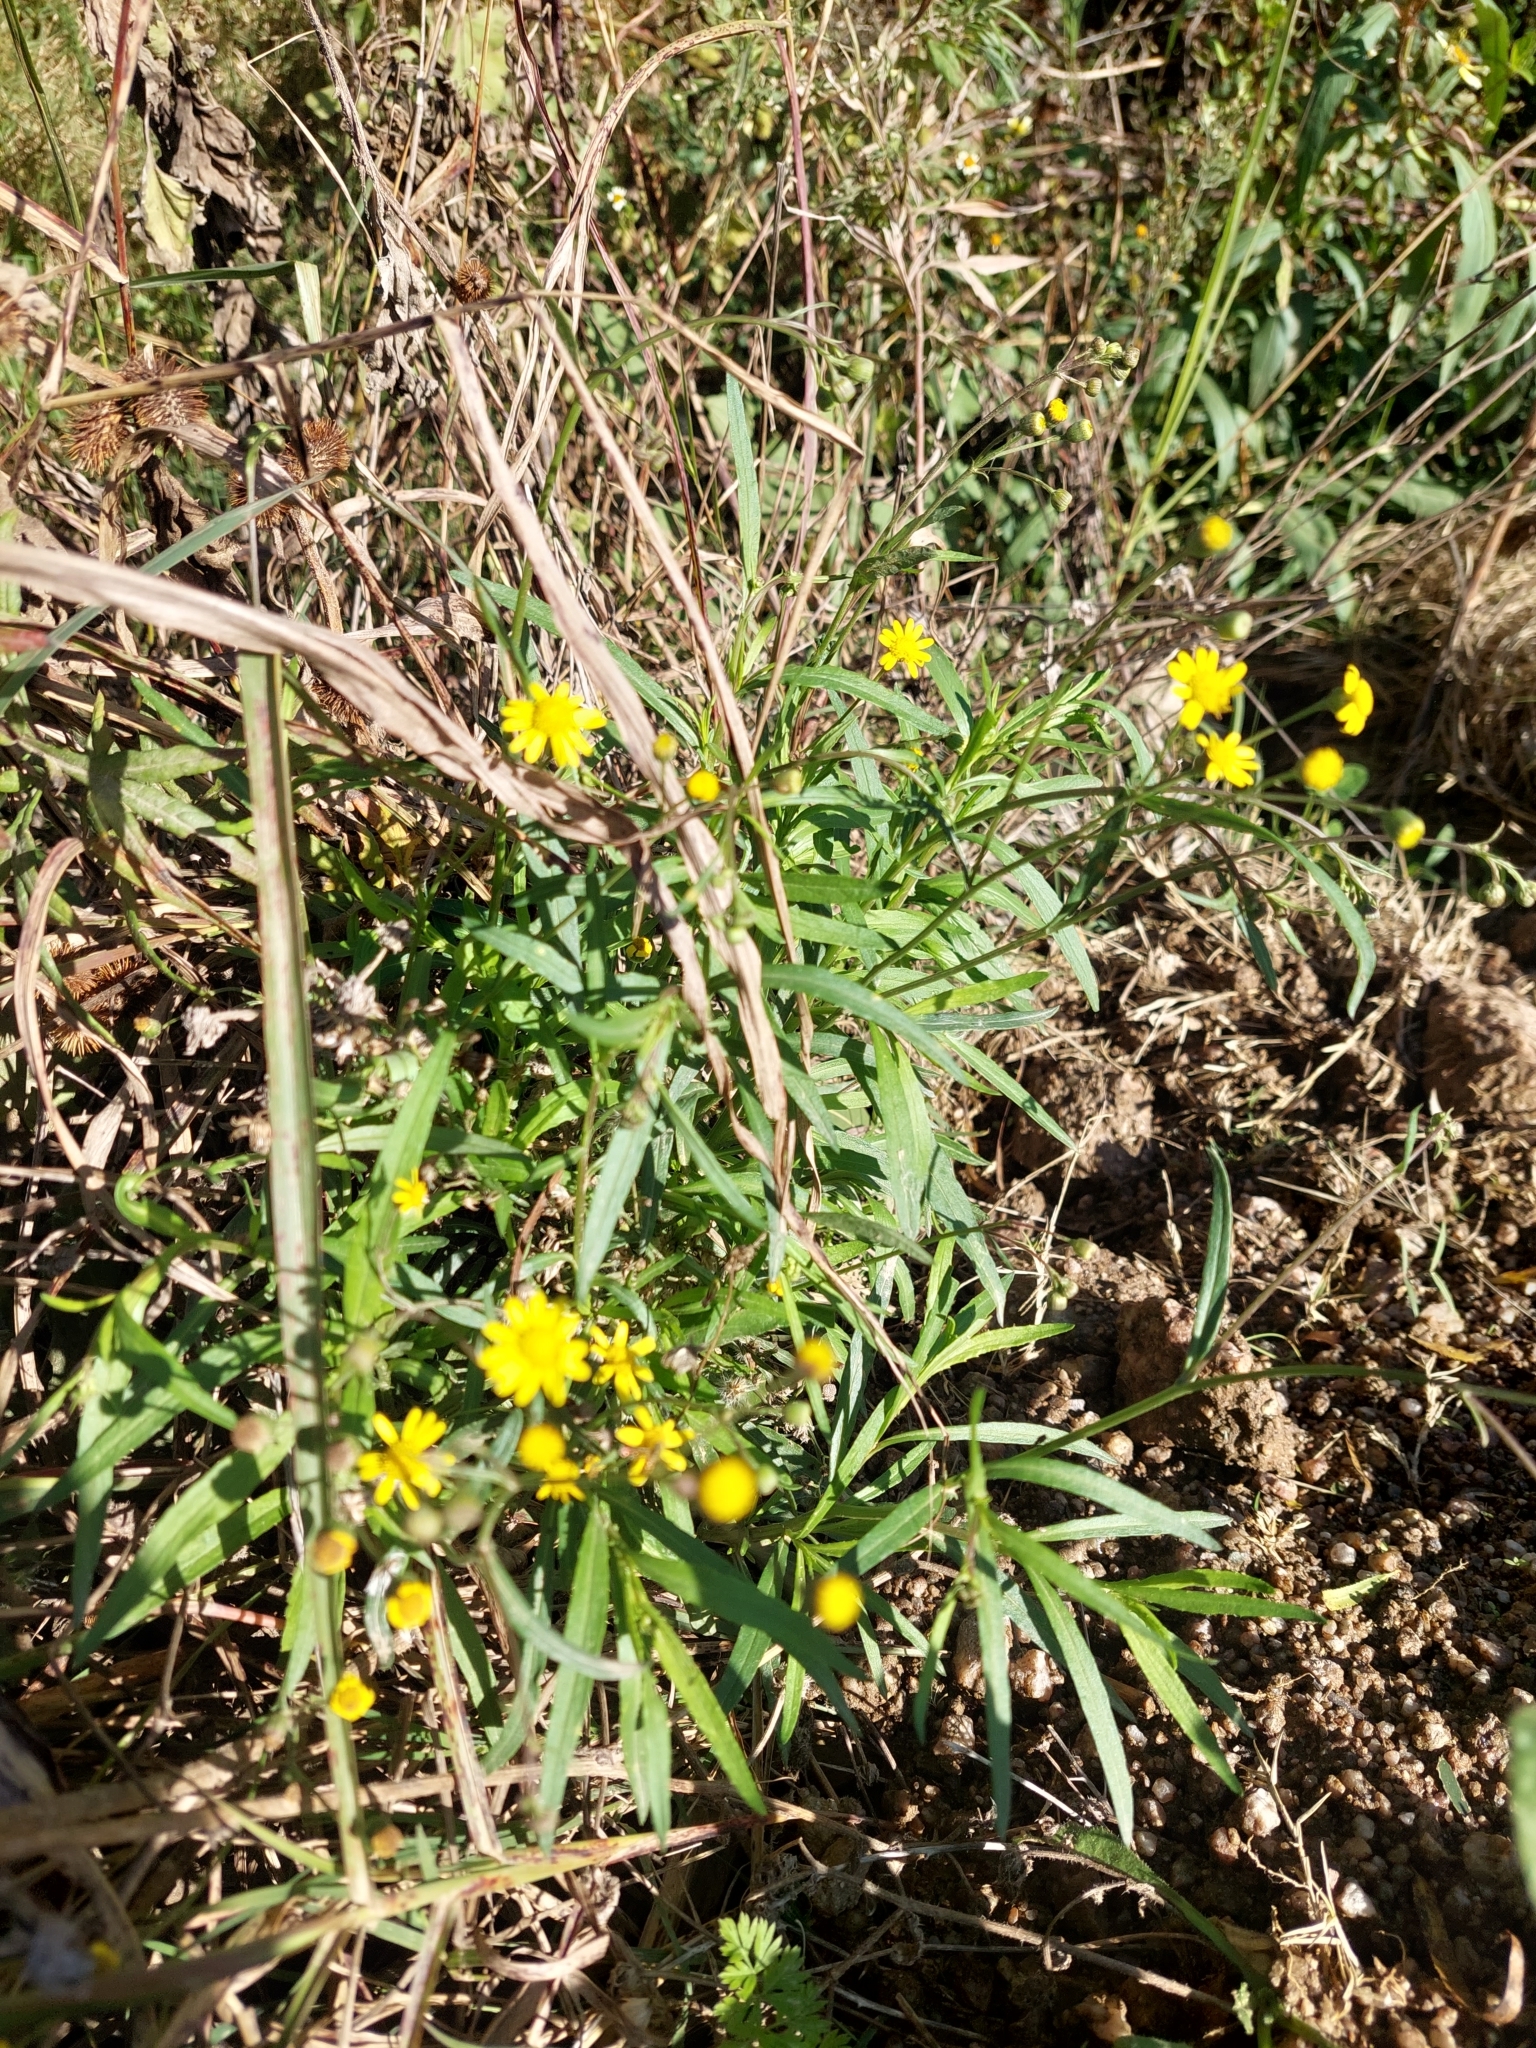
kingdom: Plantae
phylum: Tracheophyta
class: Magnoliopsida
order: Asterales
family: Asteraceae
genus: Senecio
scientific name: Senecio madagascariensis
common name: Madagascar ragwort
